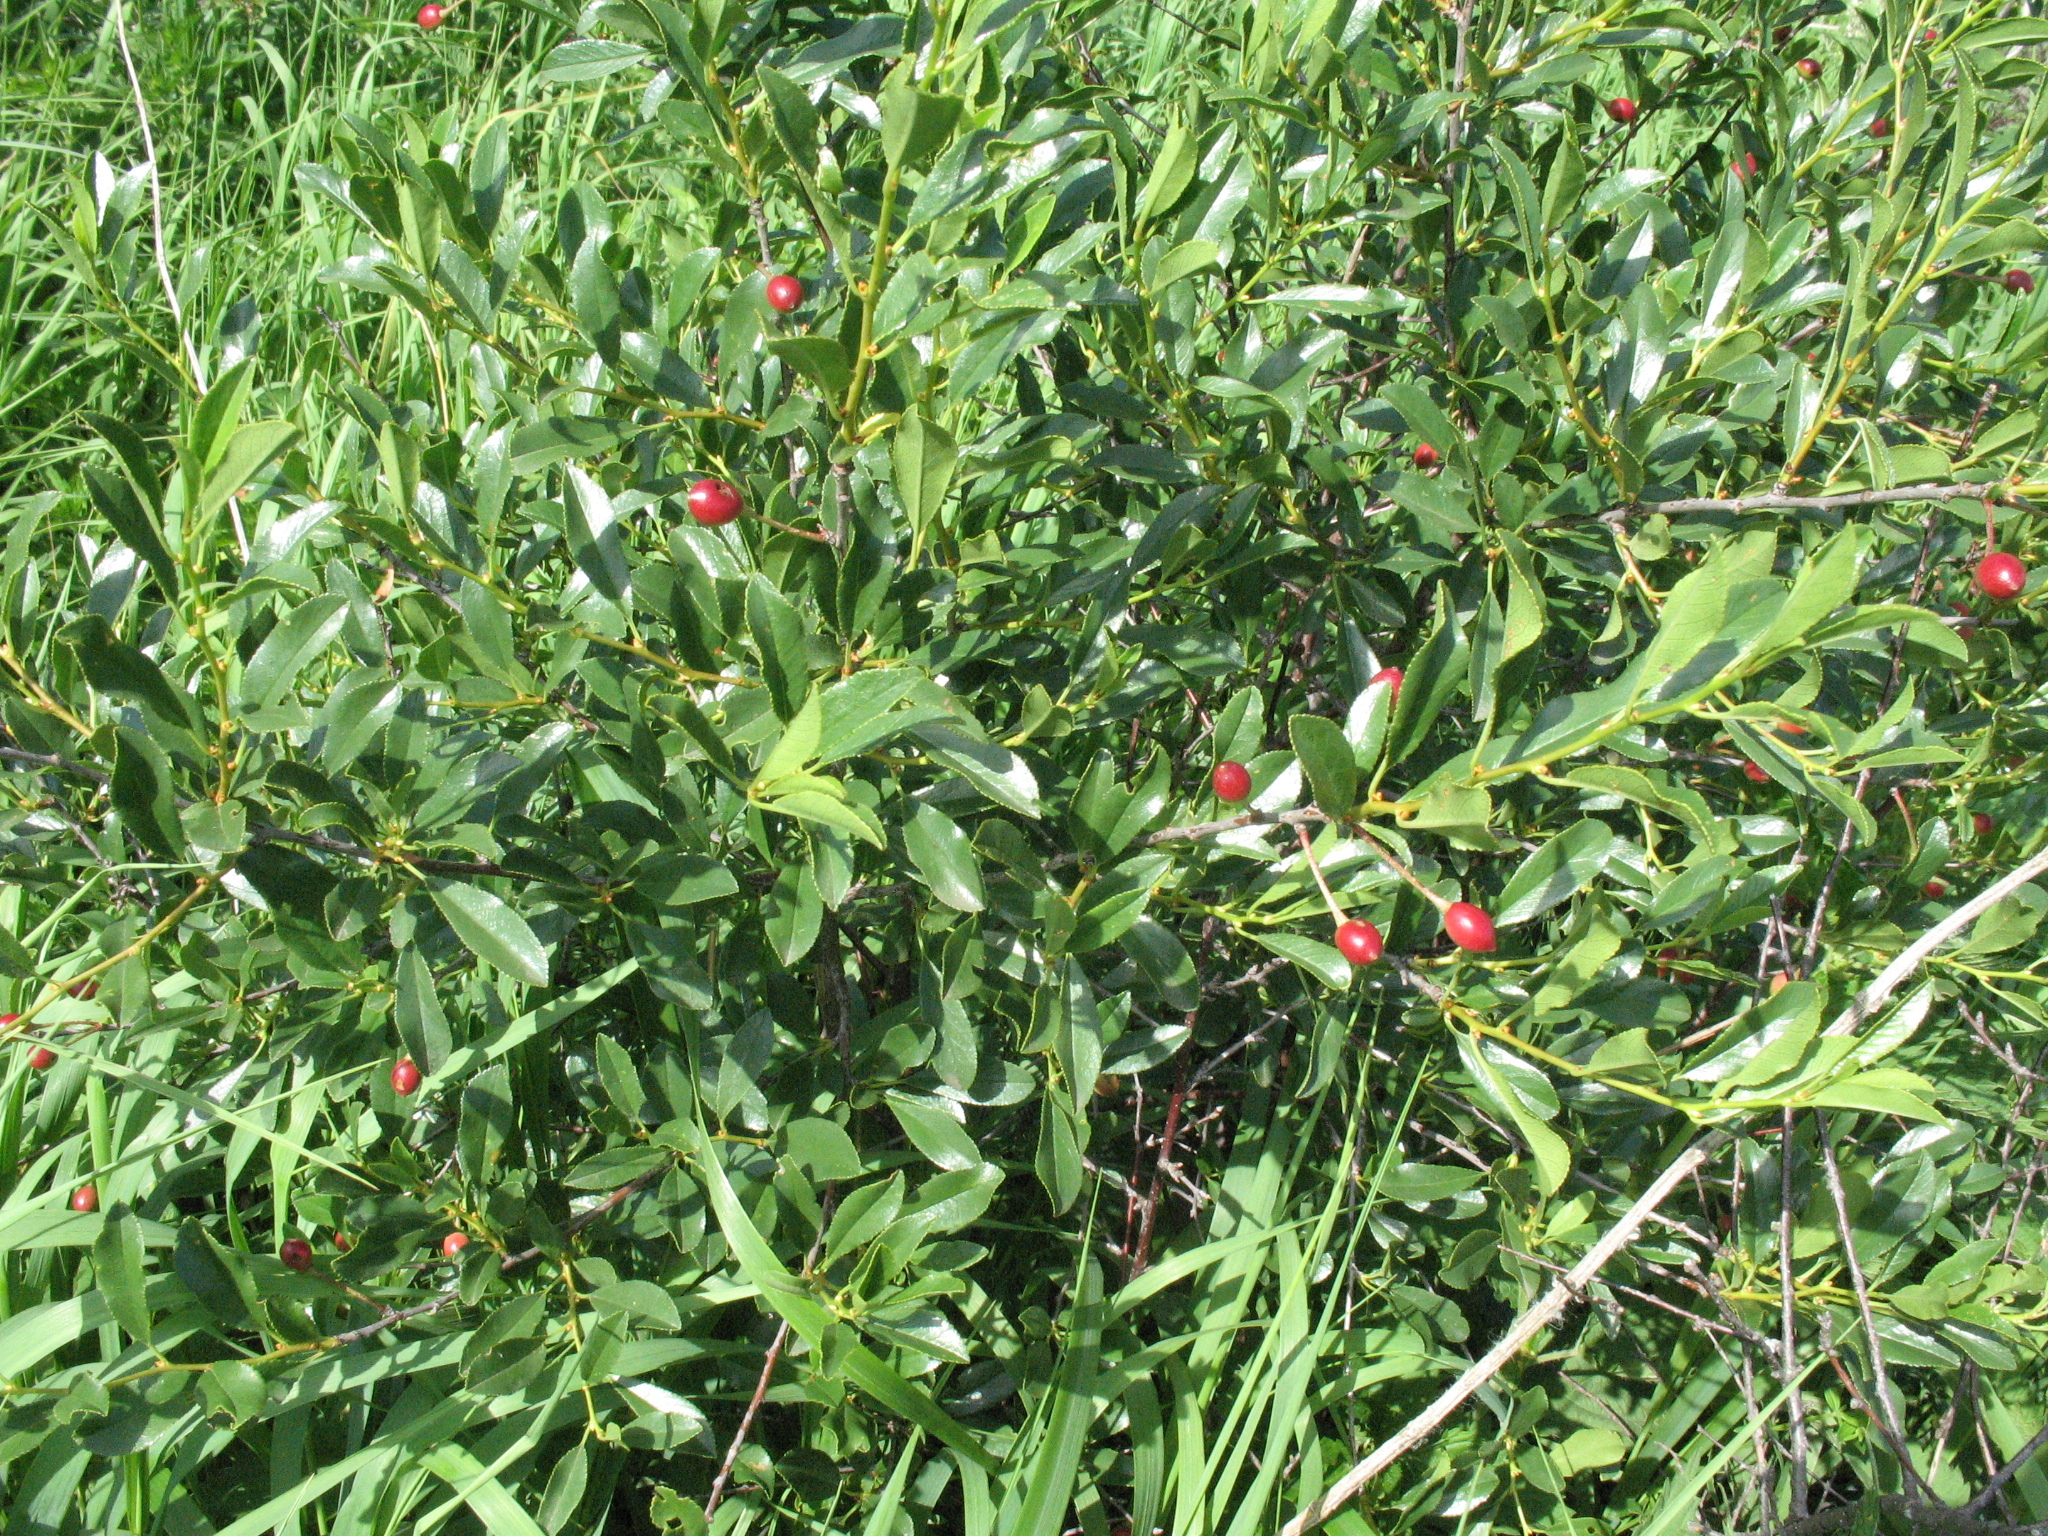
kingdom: Plantae
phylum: Tracheophyta
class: Magnoliopsida
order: Rosales
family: Rosaceae
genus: Prunus
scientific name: Prunus fruticosa
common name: European dwarf cherry
